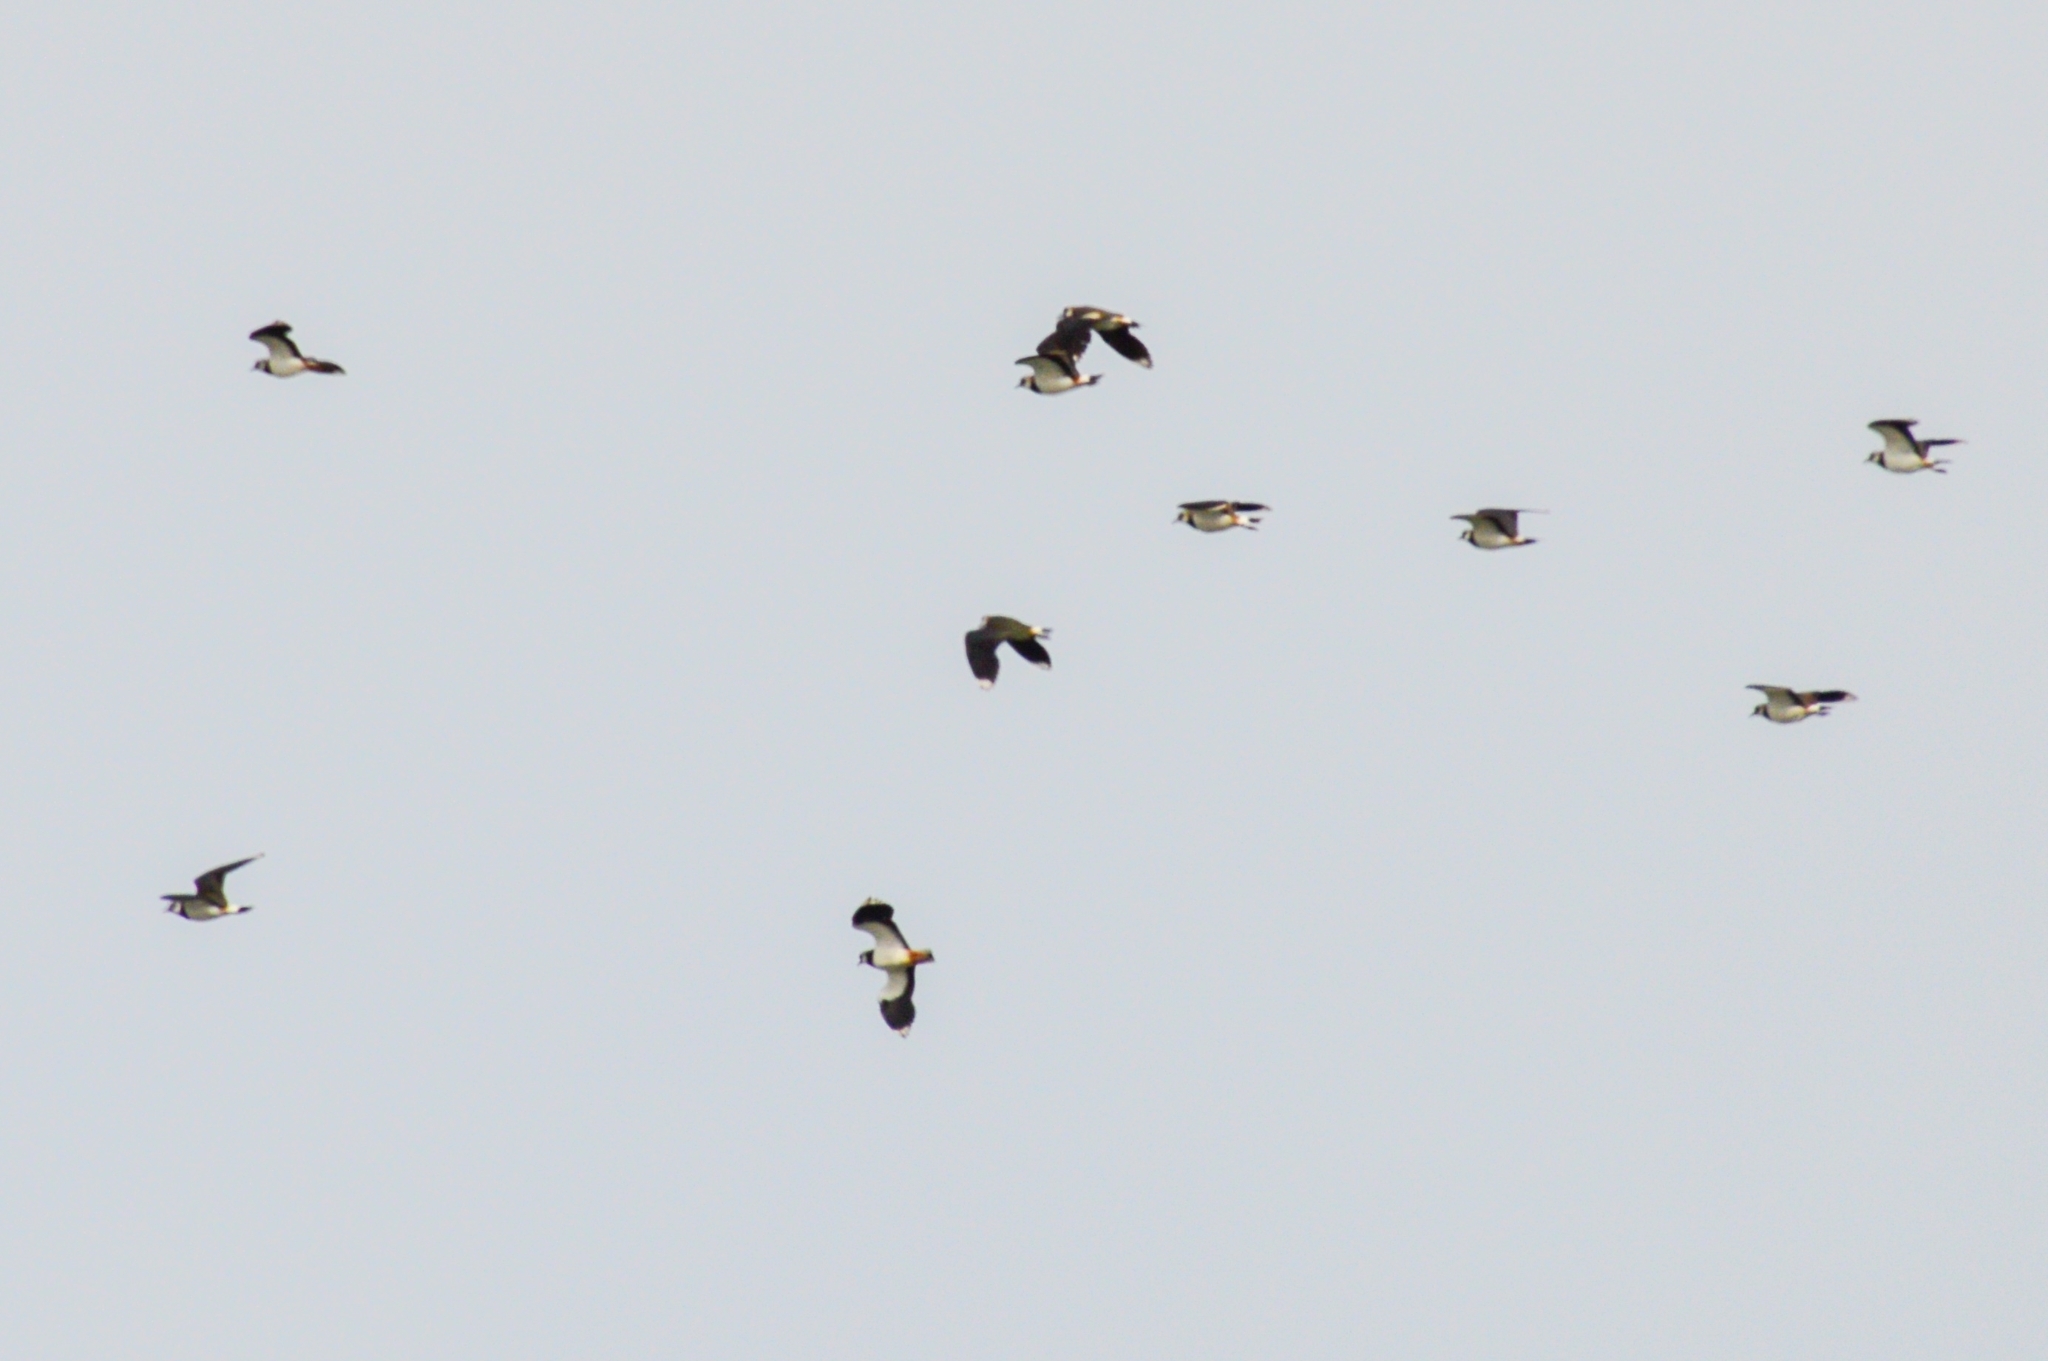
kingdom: Animalia
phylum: Chordata
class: Aves
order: Charadriiformes
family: Charadriidae
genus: Vanellus
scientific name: Vanellus vanellus
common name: Northern lapwing
